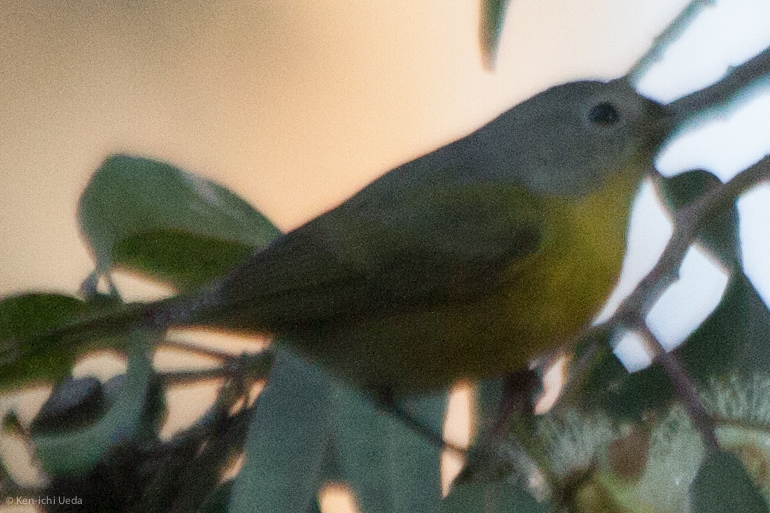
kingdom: Animalia
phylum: Chordata
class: Aves
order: Passeriformes
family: Parulidae
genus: Leiothlypis
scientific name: Leiothlypis ruficapilla
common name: Nashville warbler
